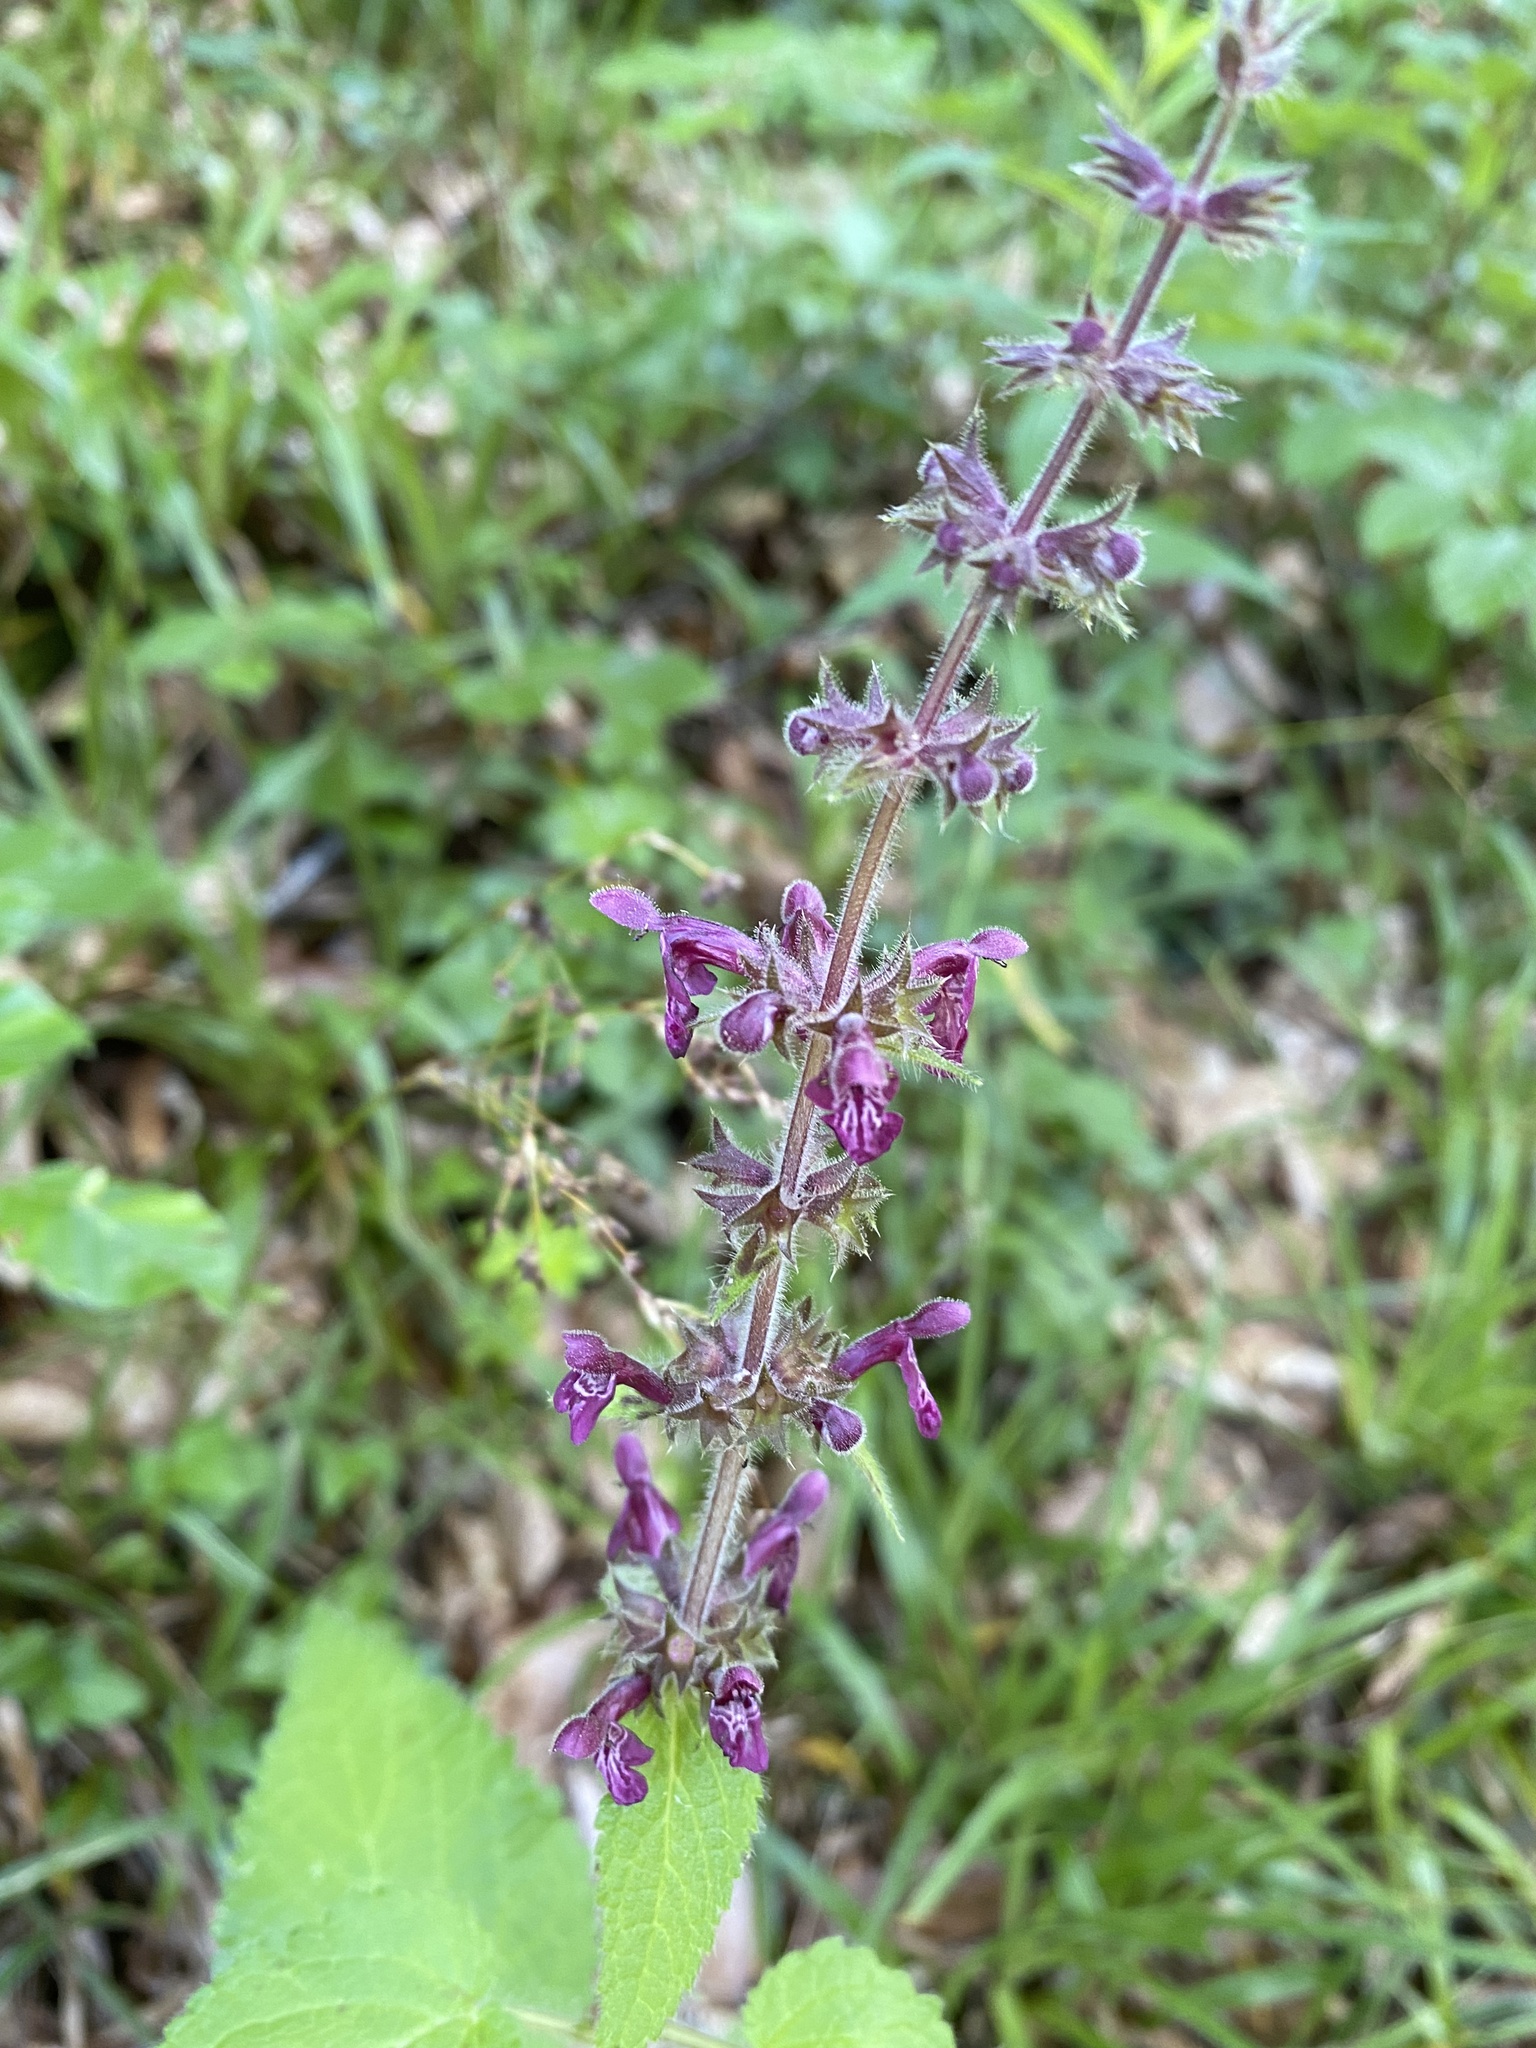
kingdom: Plantae
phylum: Tracheophyta
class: Magnoliopsida
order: Lamiales
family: Lamiaceae
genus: Stachys
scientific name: Stachys sylvatica
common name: Hedge woundwort
